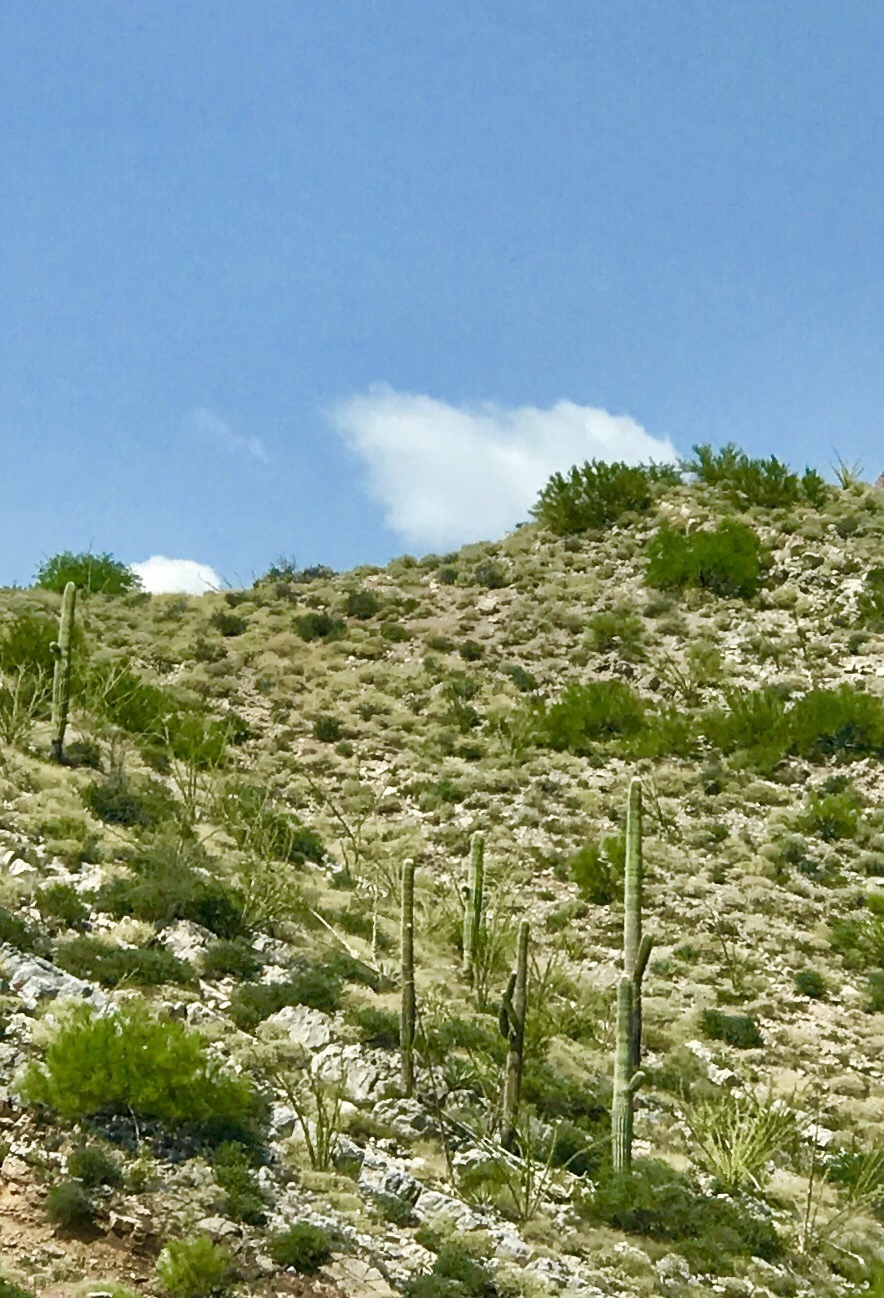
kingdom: Plantae
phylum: Tracheophyta
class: Magnoliopsida
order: Caryophyllales
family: Cactaceae
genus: Carnegiea
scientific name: Carnegiea gigantea
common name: Saguaro
